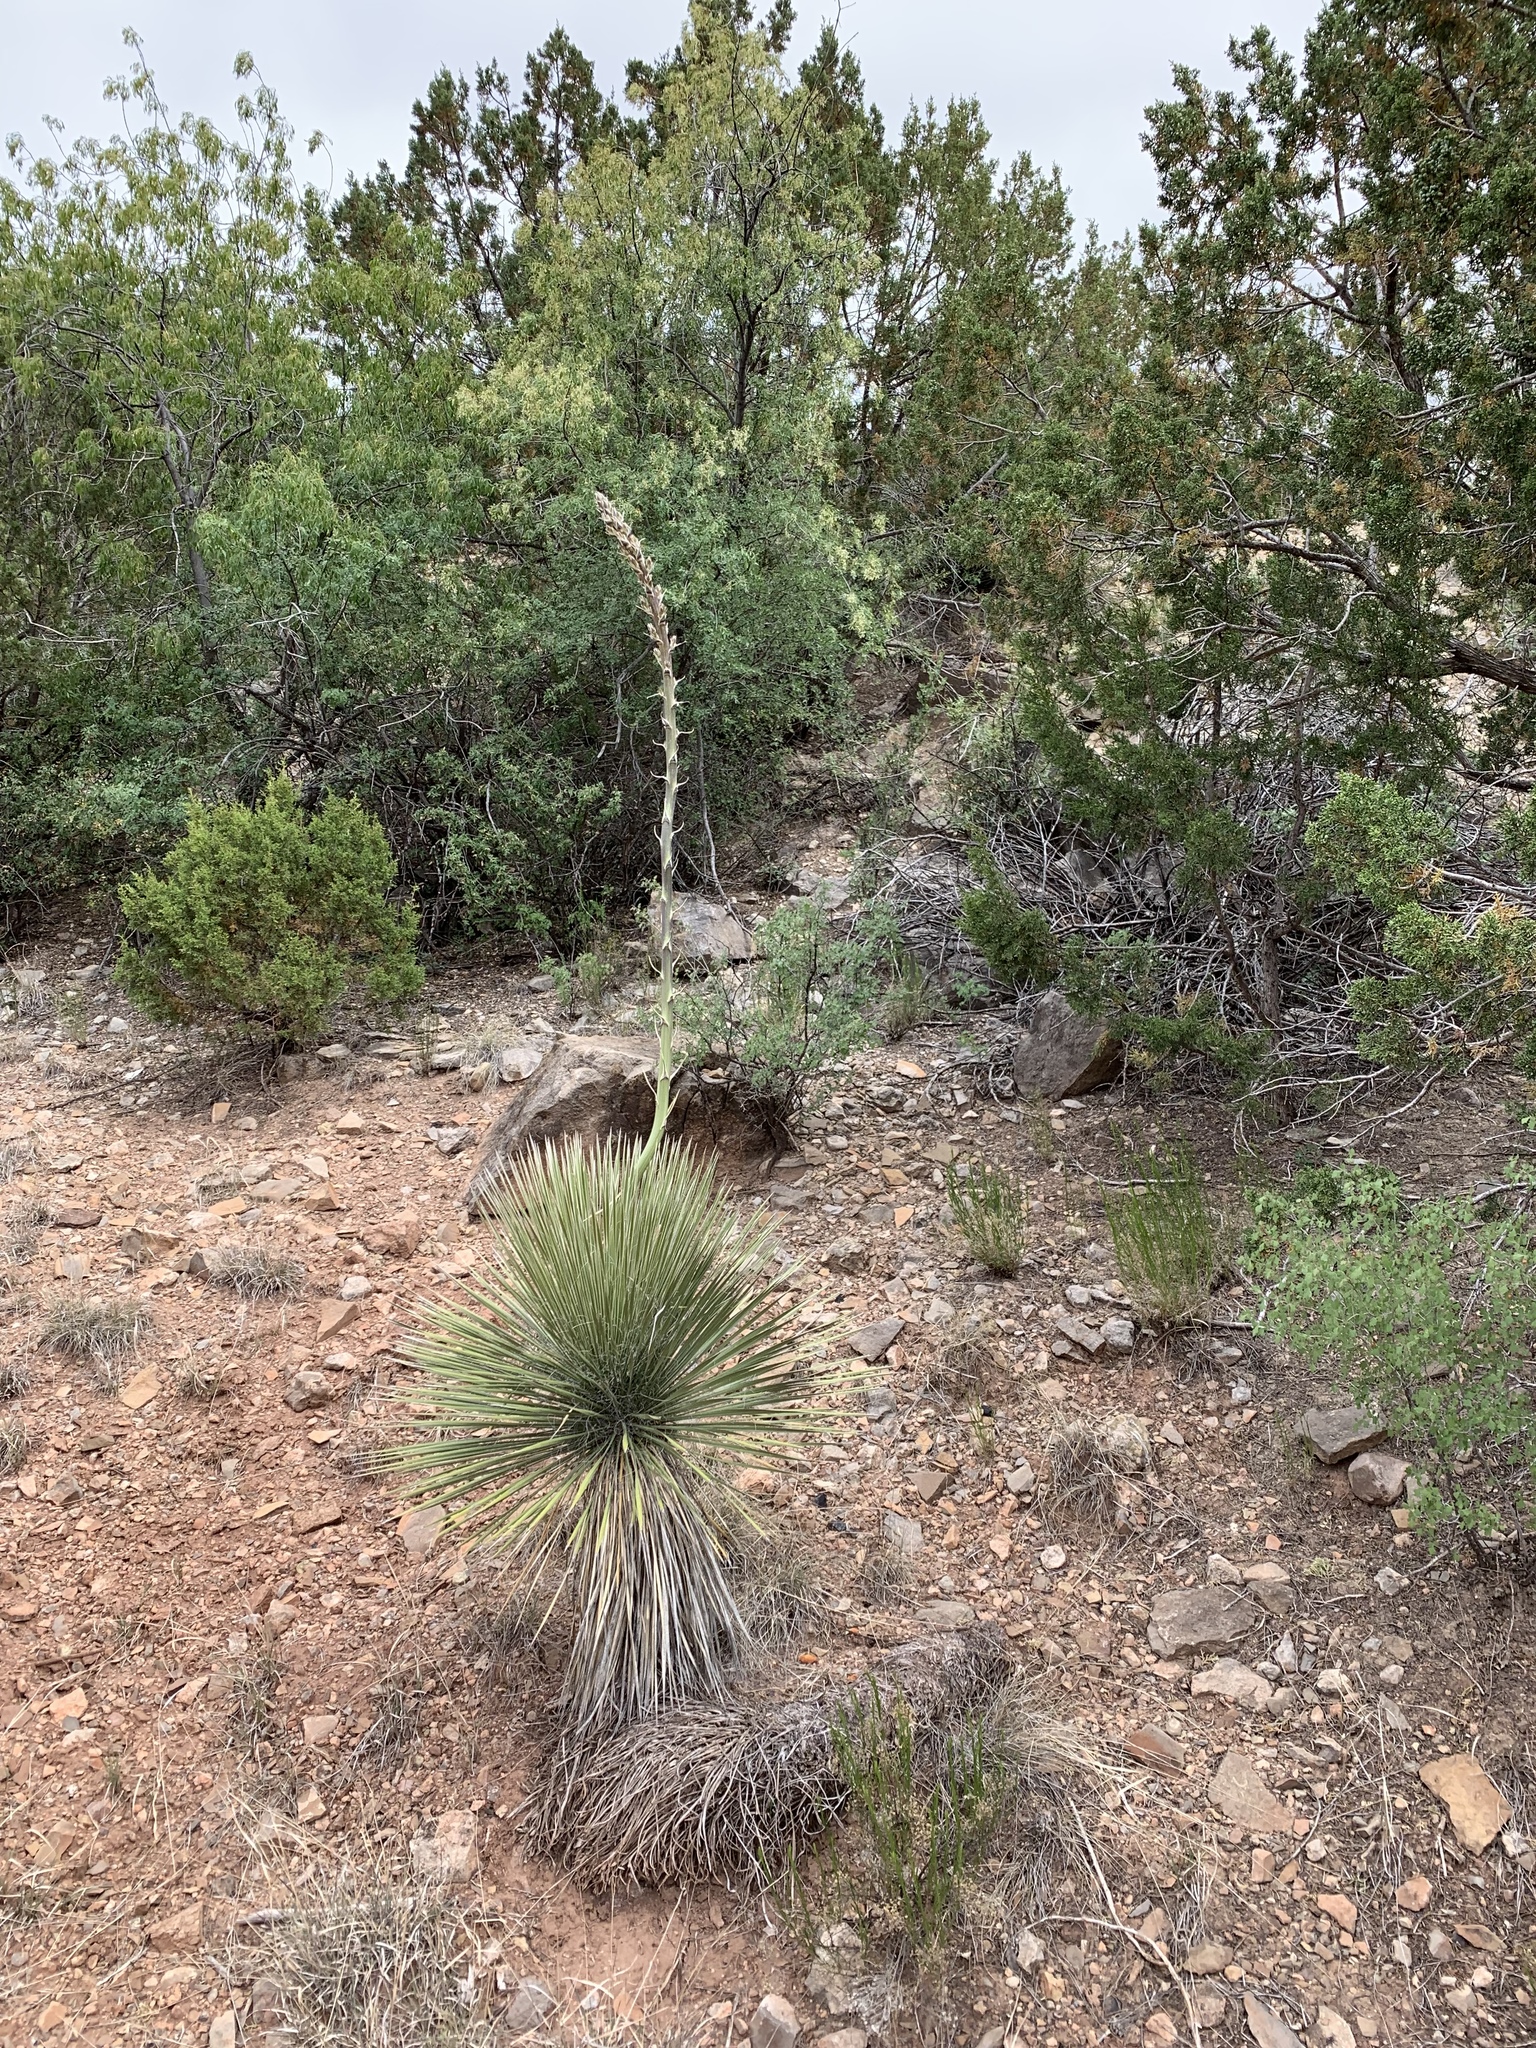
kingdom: Plantae
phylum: Tracheophyta
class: Liliopsida
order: Asparagales
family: Asparagaceae
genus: Yucca
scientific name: Yucca elata
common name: Palmella
